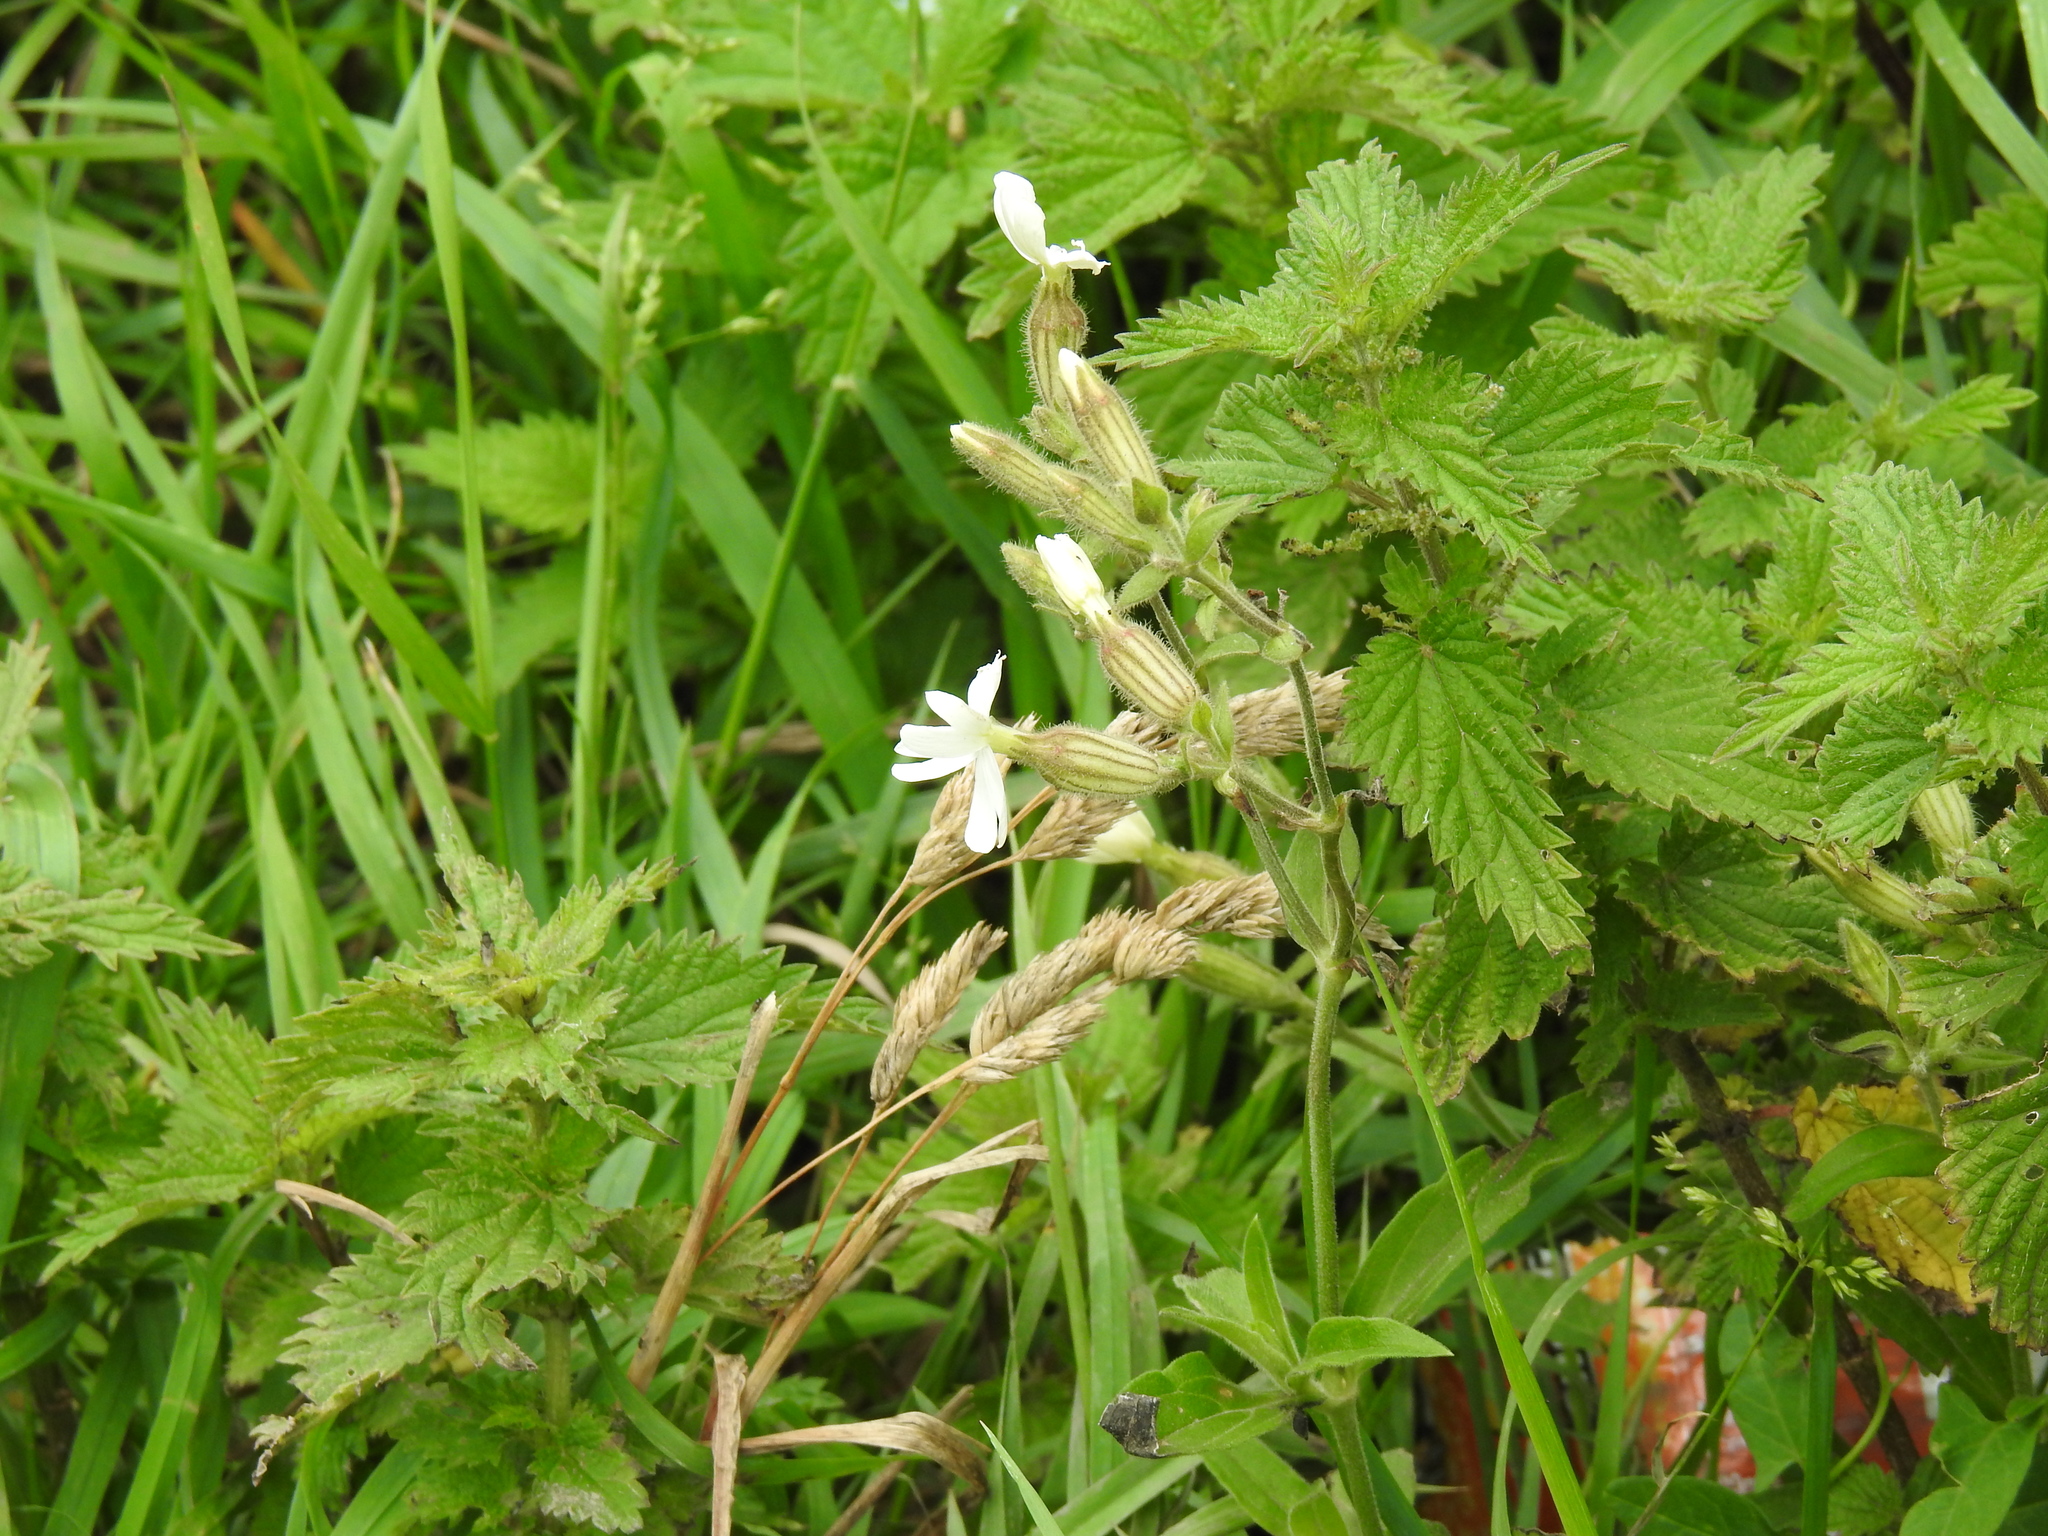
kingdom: Plantae
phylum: Tracheophyta
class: Magnoliopsida
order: Caryophyllales
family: Caryophyllaceae
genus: Silene
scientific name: Silene latifolia
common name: White campion
